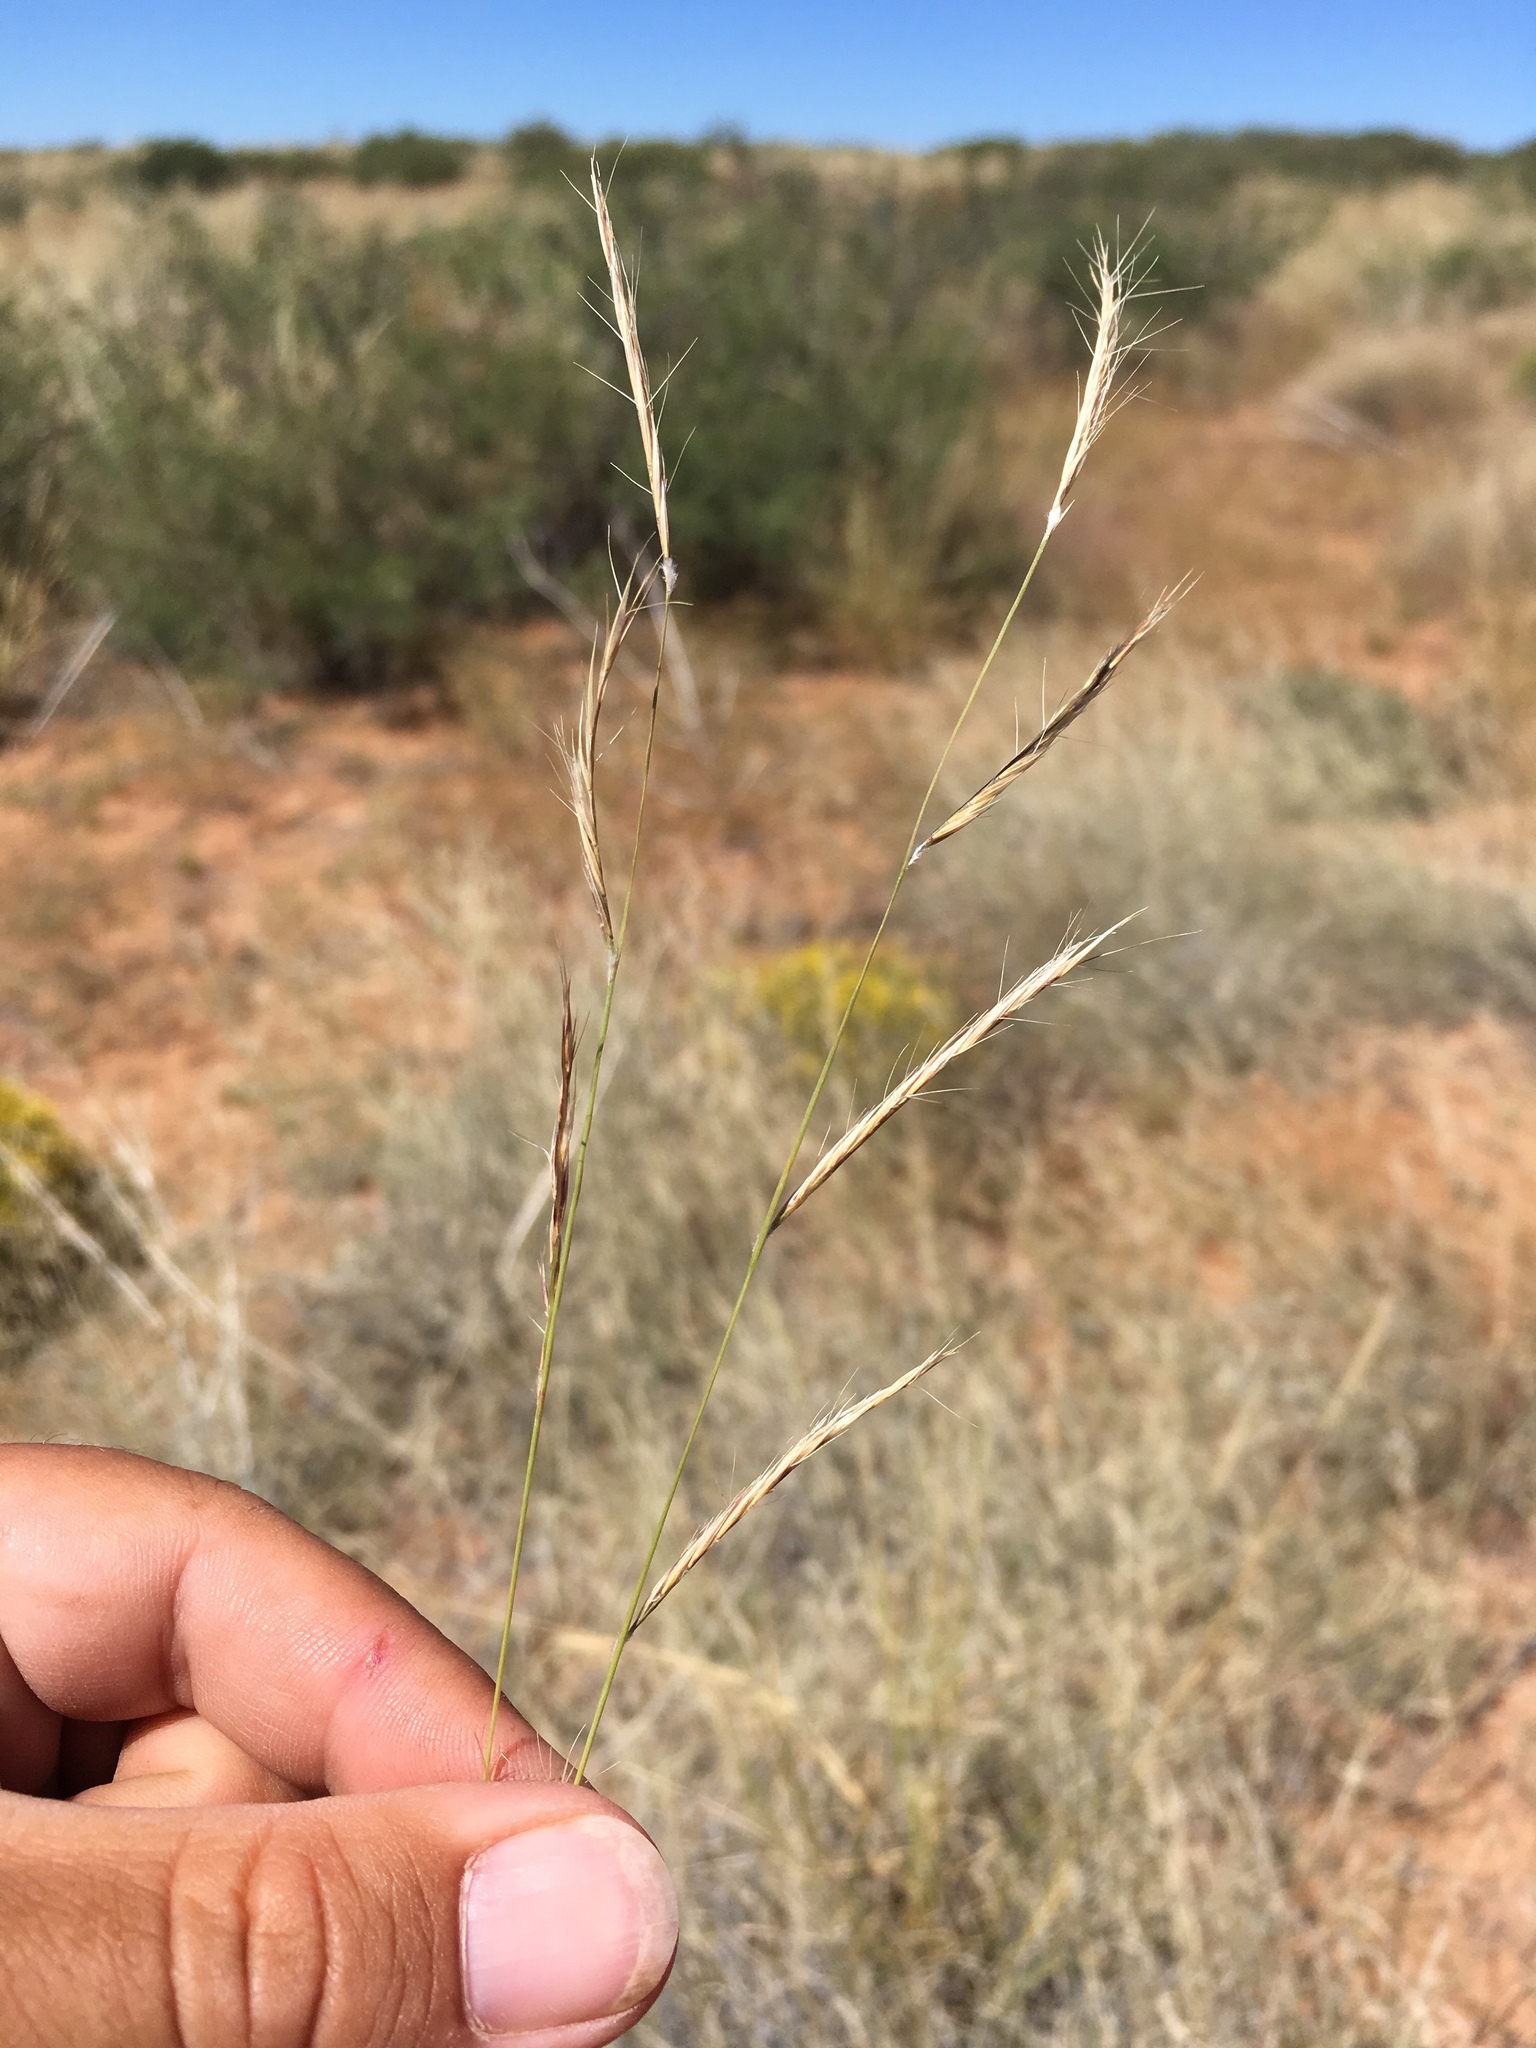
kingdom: Plantae
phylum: Tracheophyta
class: Liliopsida
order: Poales
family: Poaceae
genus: Bouteloua
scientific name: Bouteloua eriopoda
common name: Woolly foot grama
